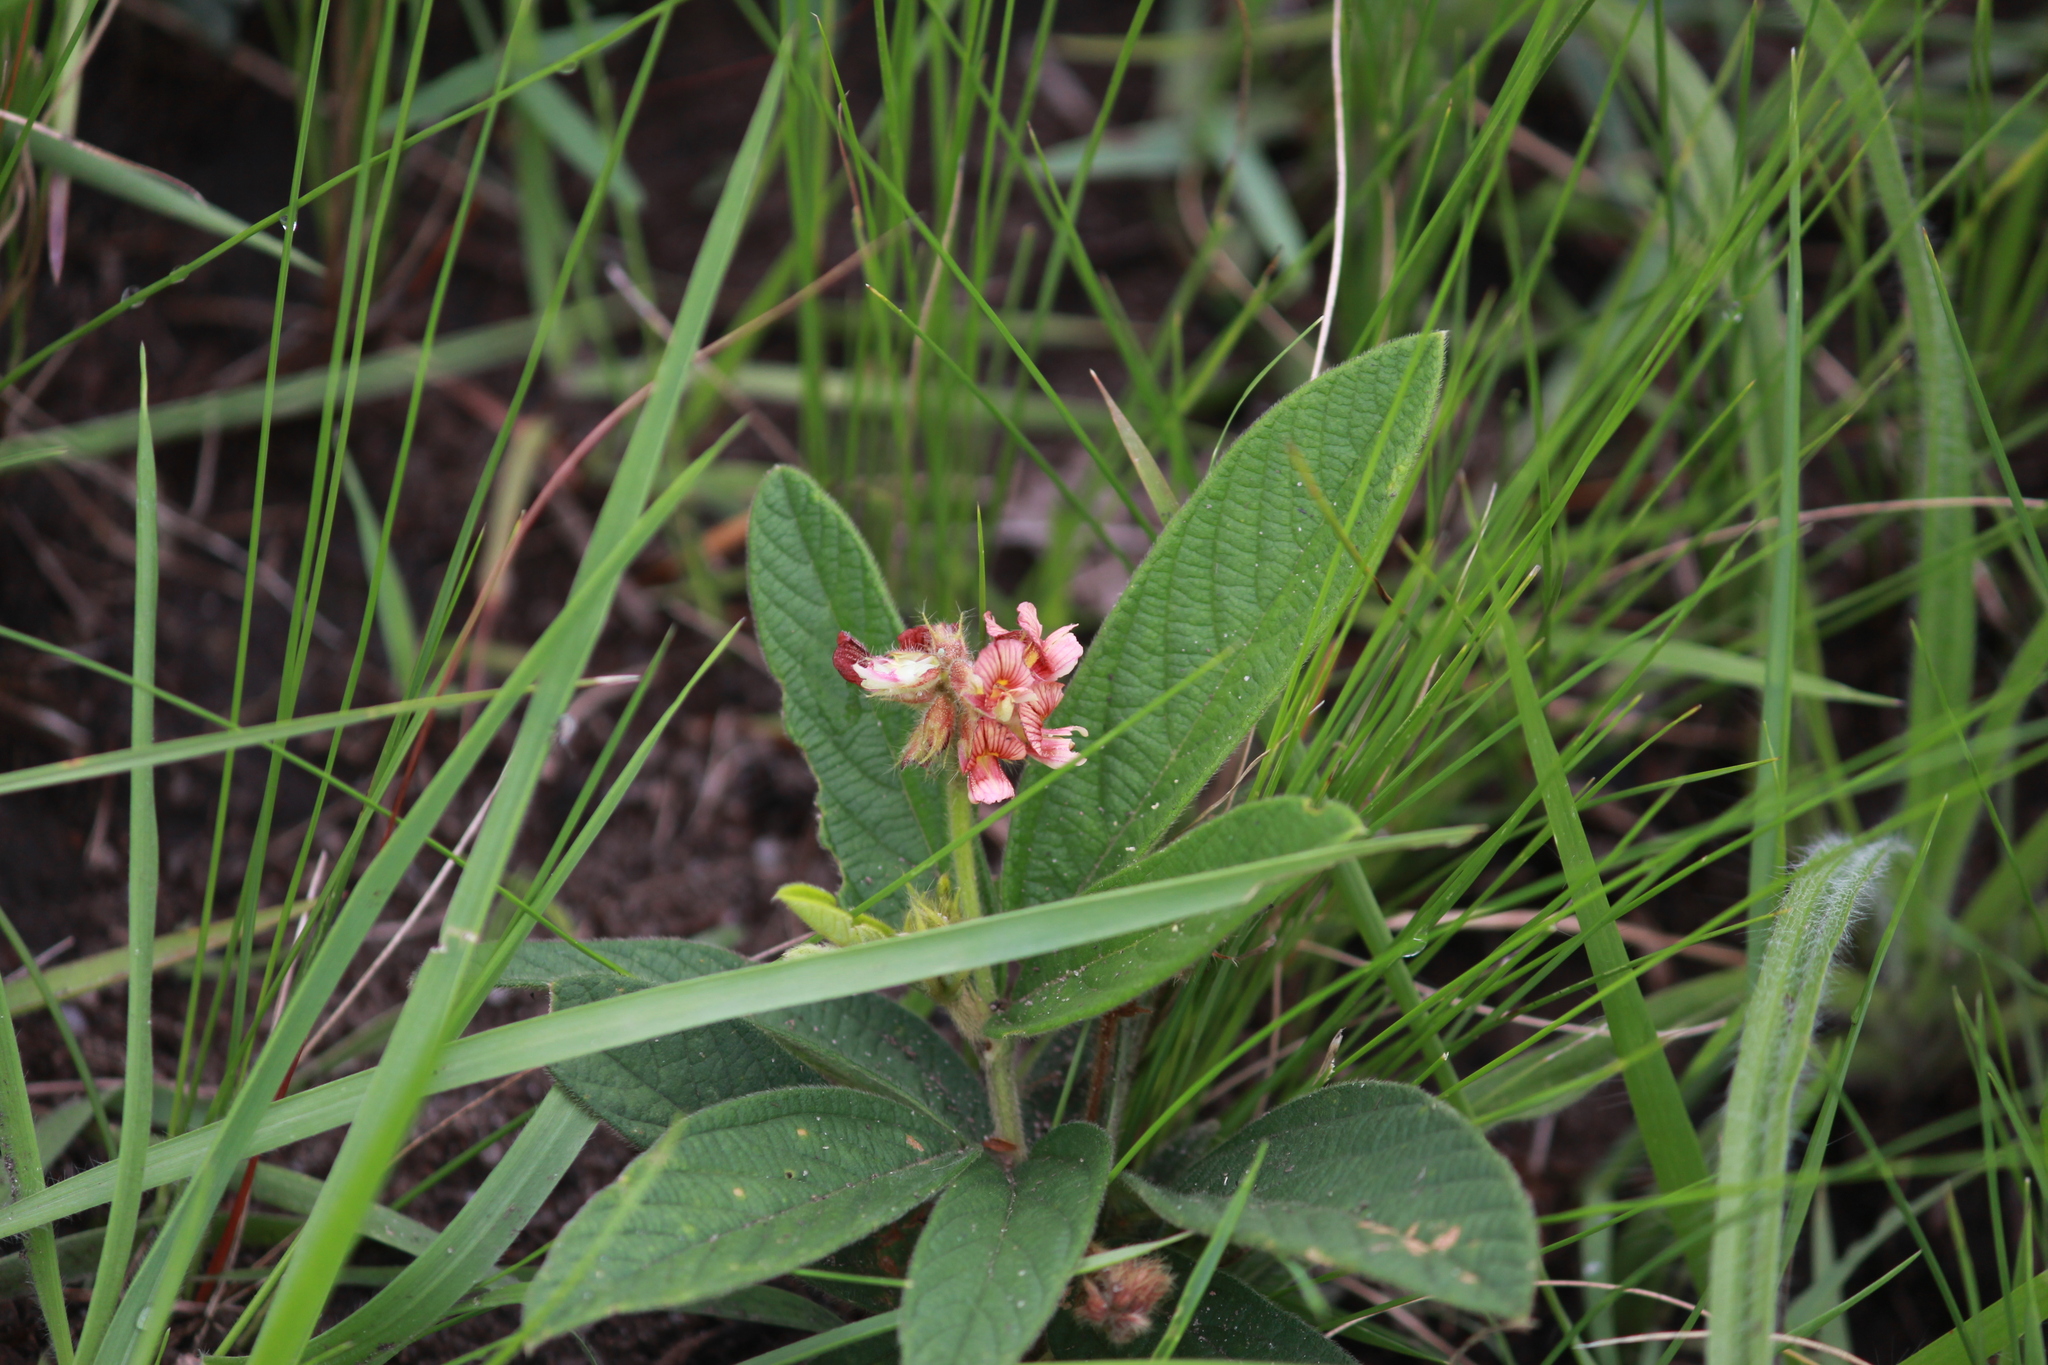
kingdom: Plantae
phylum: Tracheophyta
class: Magnoliopsida
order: Fabales
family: Fabaceae
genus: Eriosema
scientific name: Eriosema cordatum
